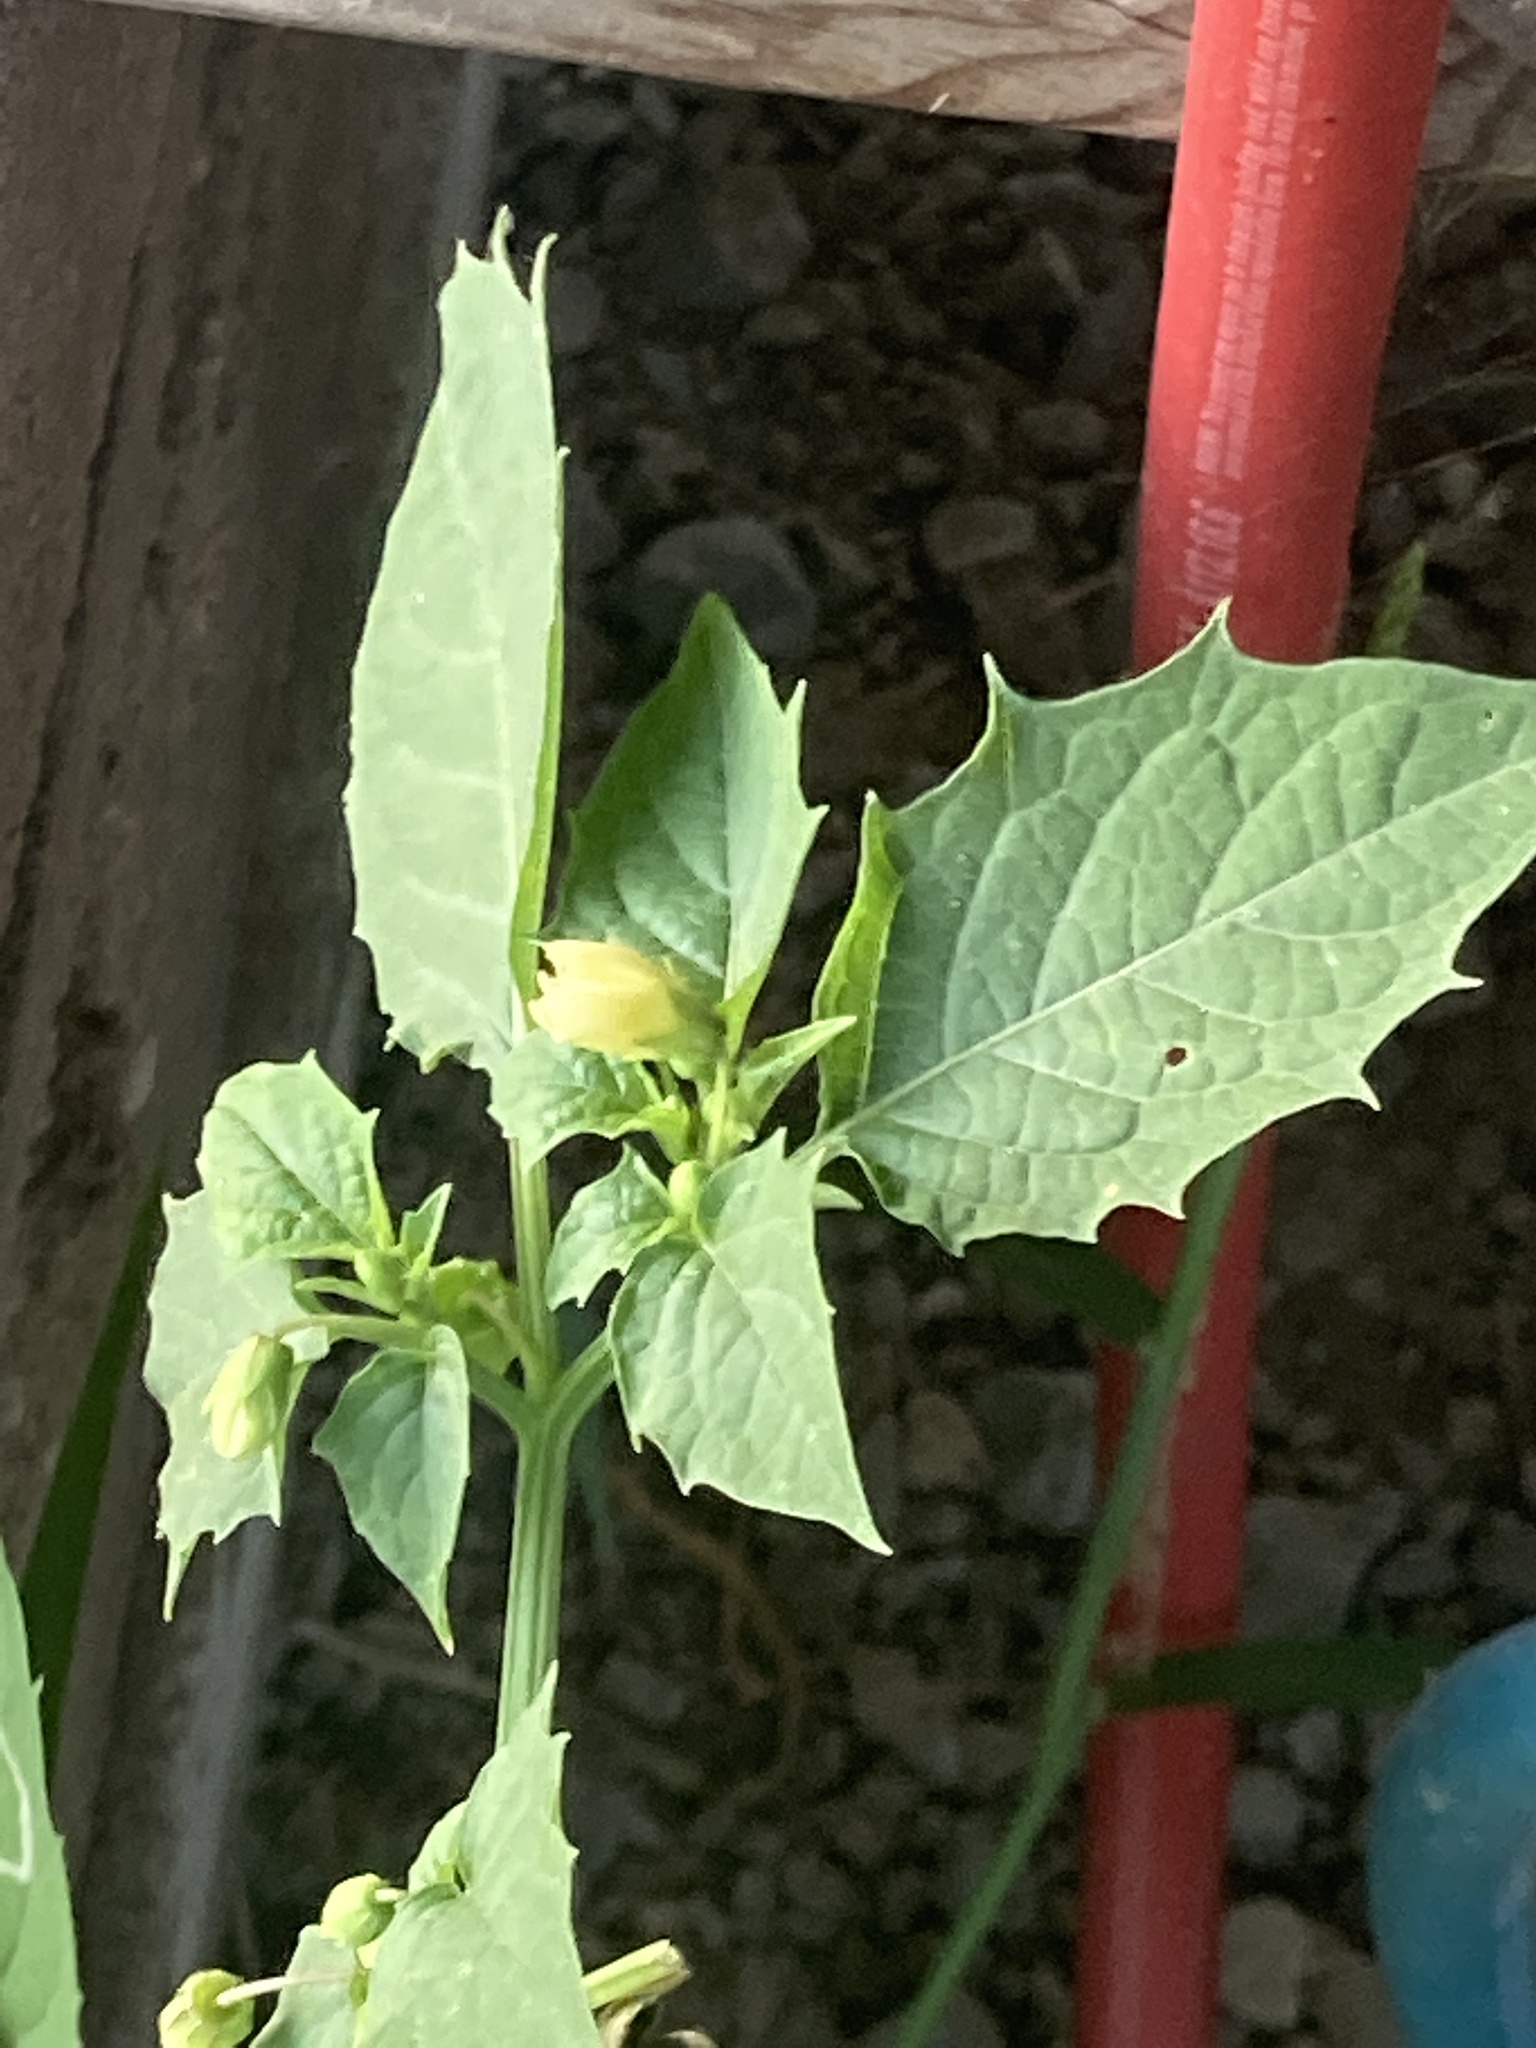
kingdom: Plantae
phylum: Tracheophyta
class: Magnoliopsida
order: Solanales
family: Solanaceae
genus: Physalis
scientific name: Physalis angulata
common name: Angular winter-cherry
